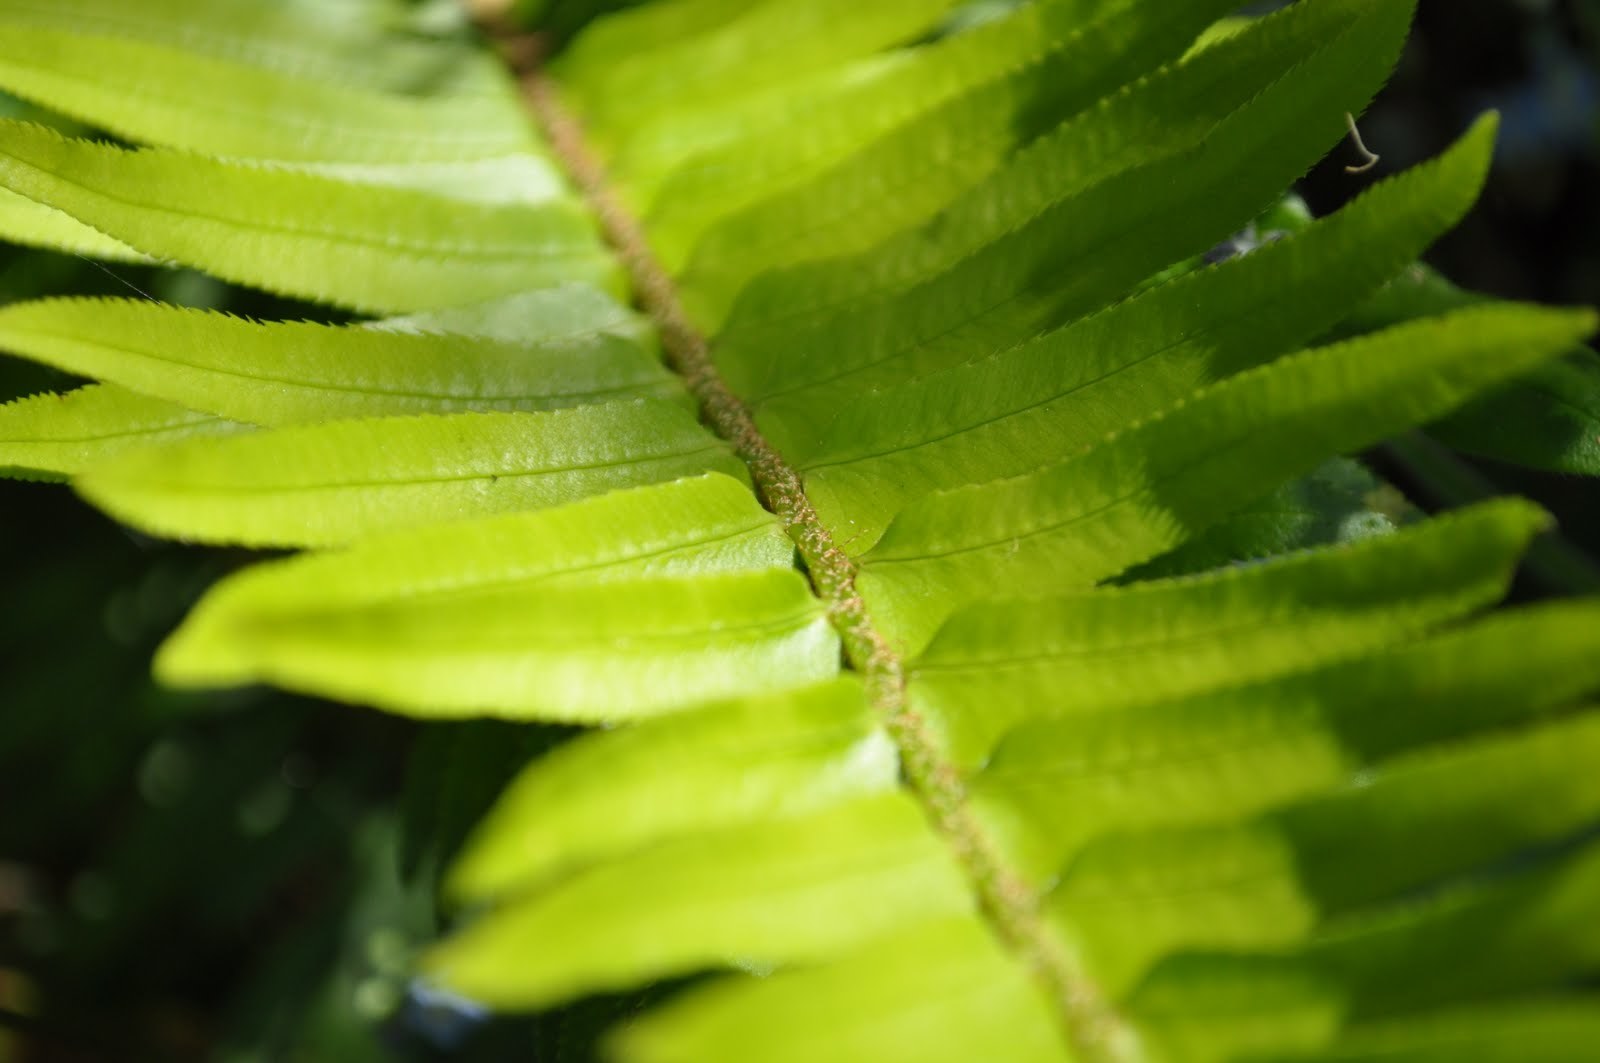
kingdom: Plantae
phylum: Tracheophyta
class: Polypodiopsida
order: Polypodiales
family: Dryopteridaceae
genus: Polystichum
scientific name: Polystichum munitum
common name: Western sword-fern
